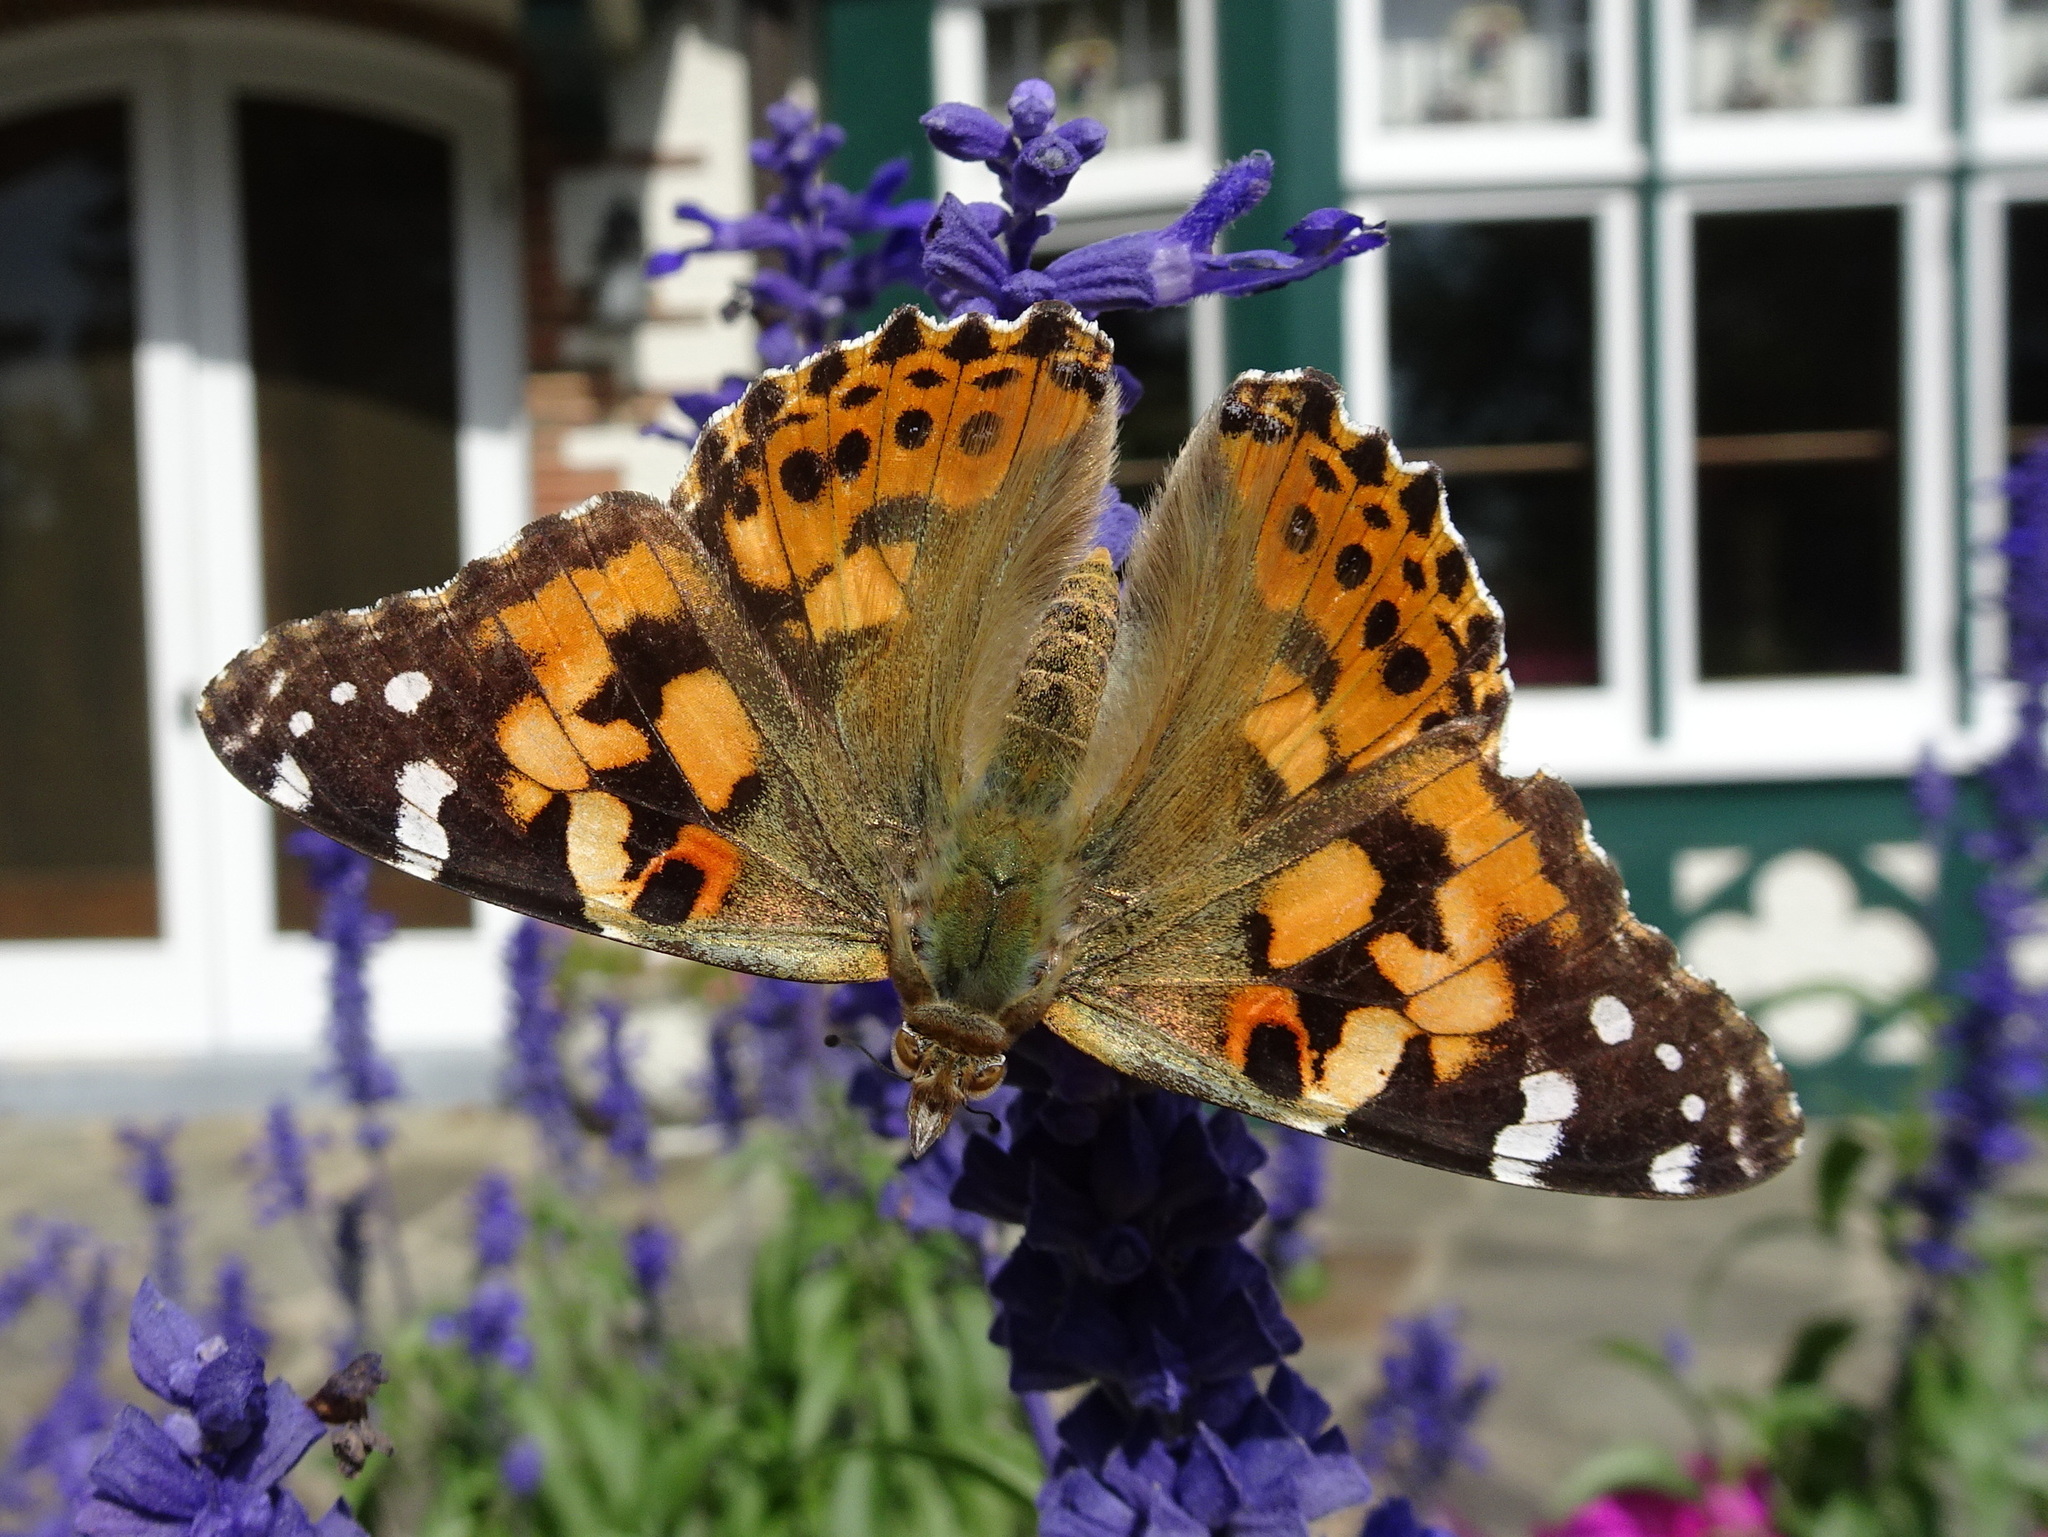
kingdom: Animalia
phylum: Arthropoda
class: Insecta
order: Lepidoptera
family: Nymphalidae
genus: Vanessa
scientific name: Vanessa cardui
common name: Painted lady
